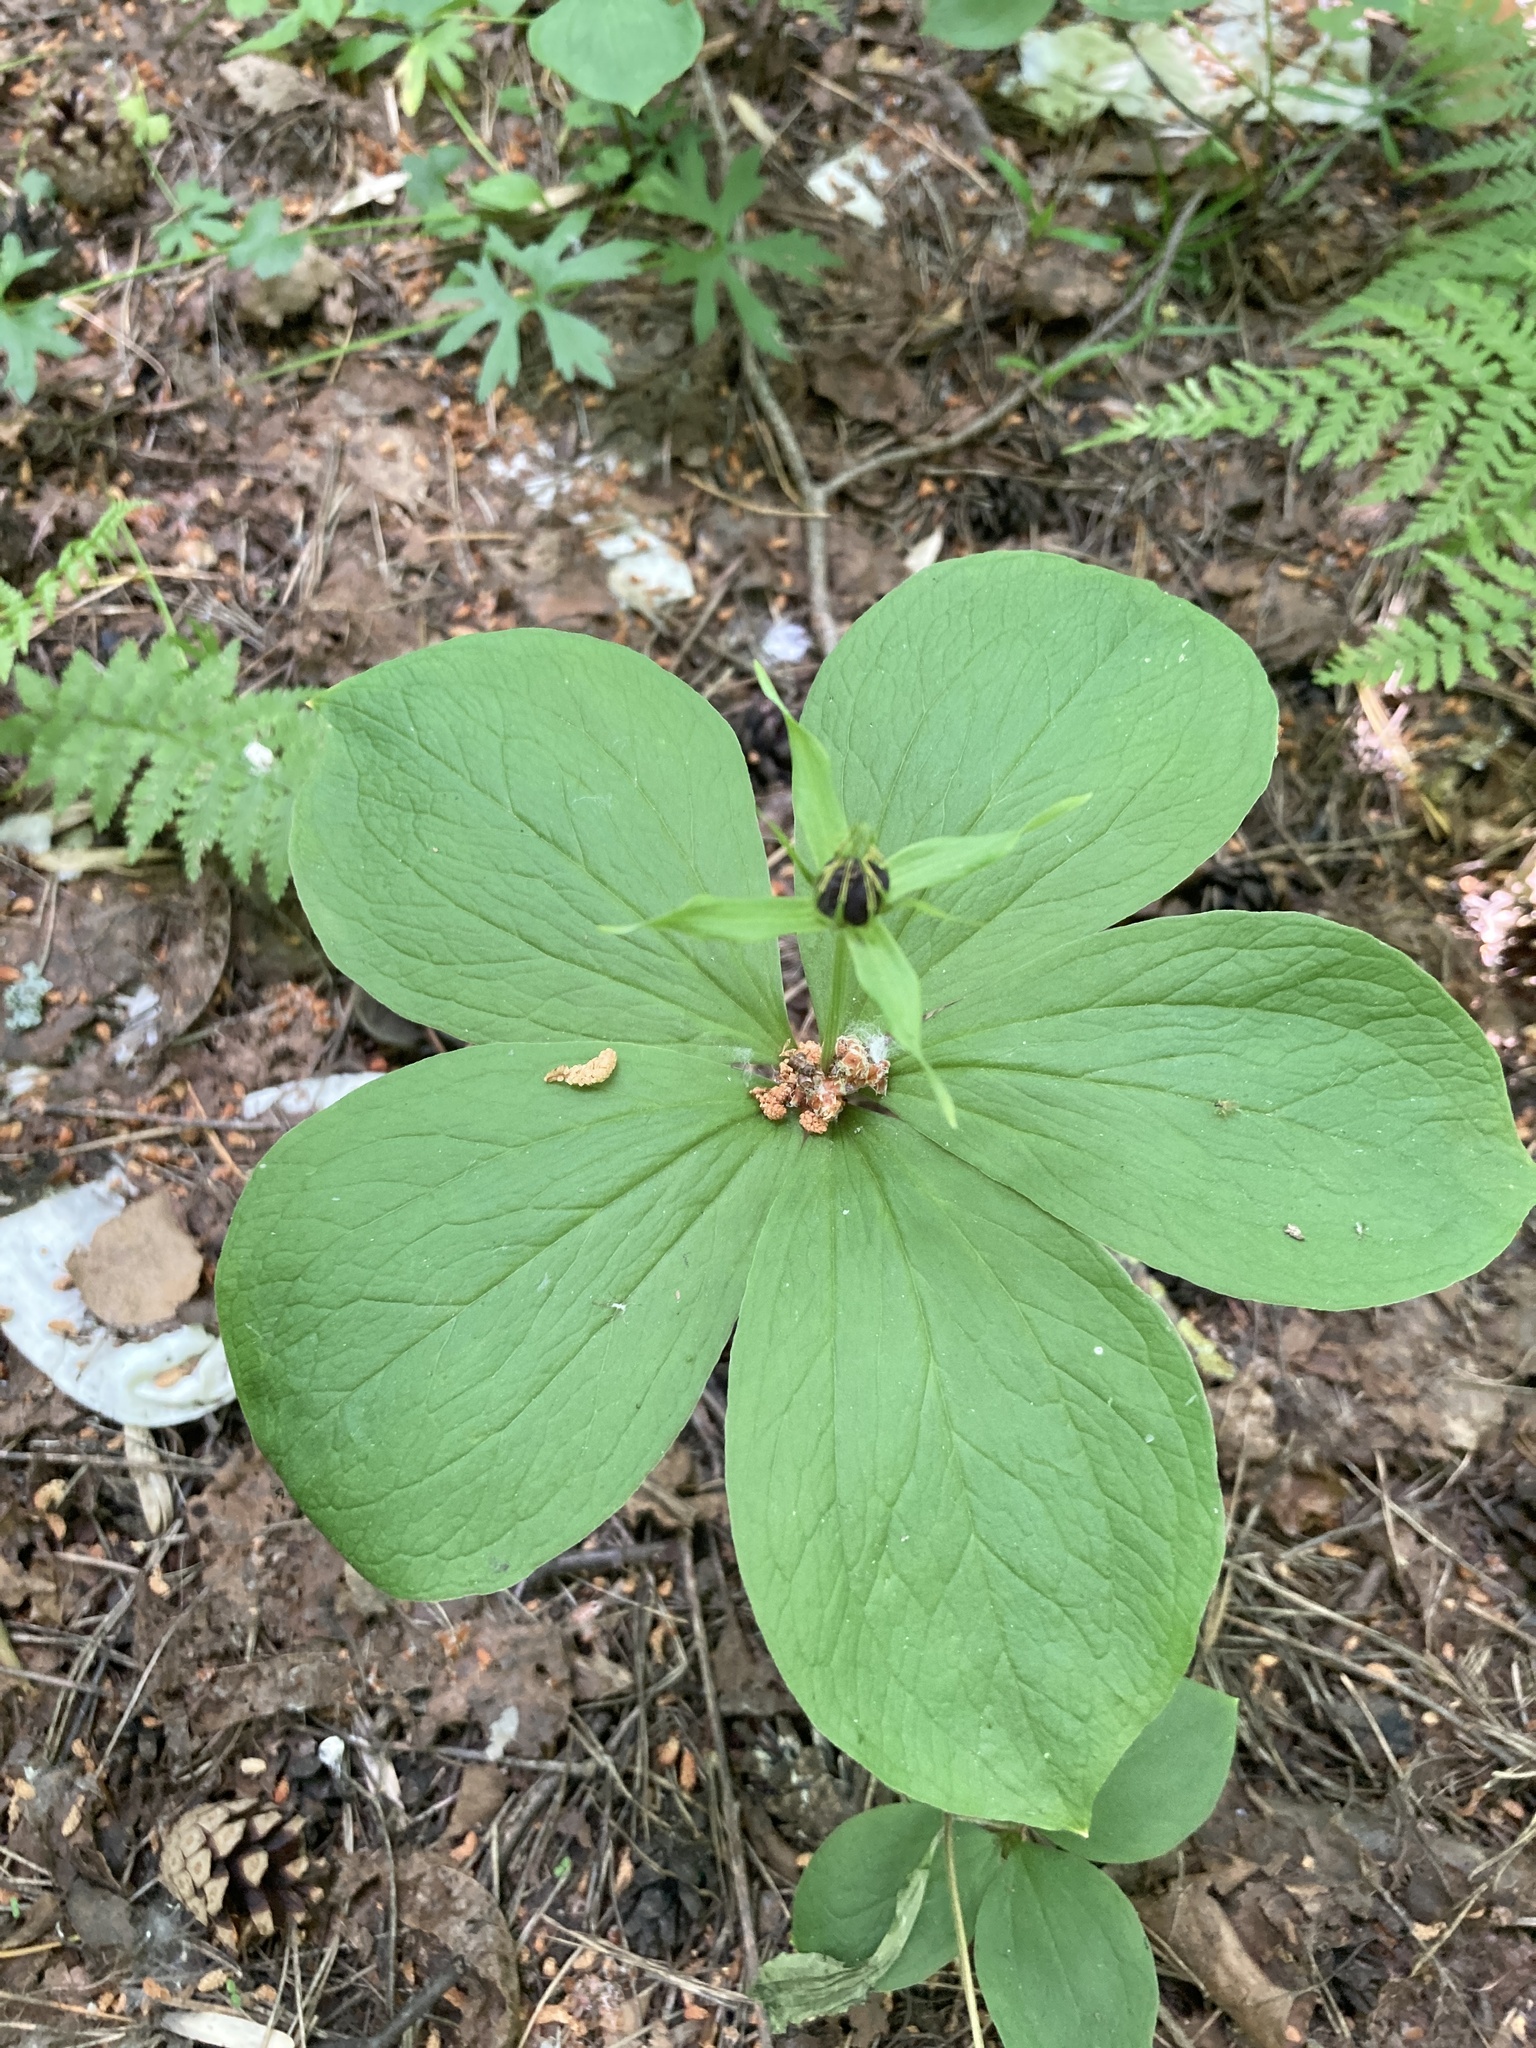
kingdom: Plantae
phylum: Tracheophyta
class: Liliopsida
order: Liliales
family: Melanthiaceae
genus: Paris
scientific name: Paris quadrifolia
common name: Herb-paris
